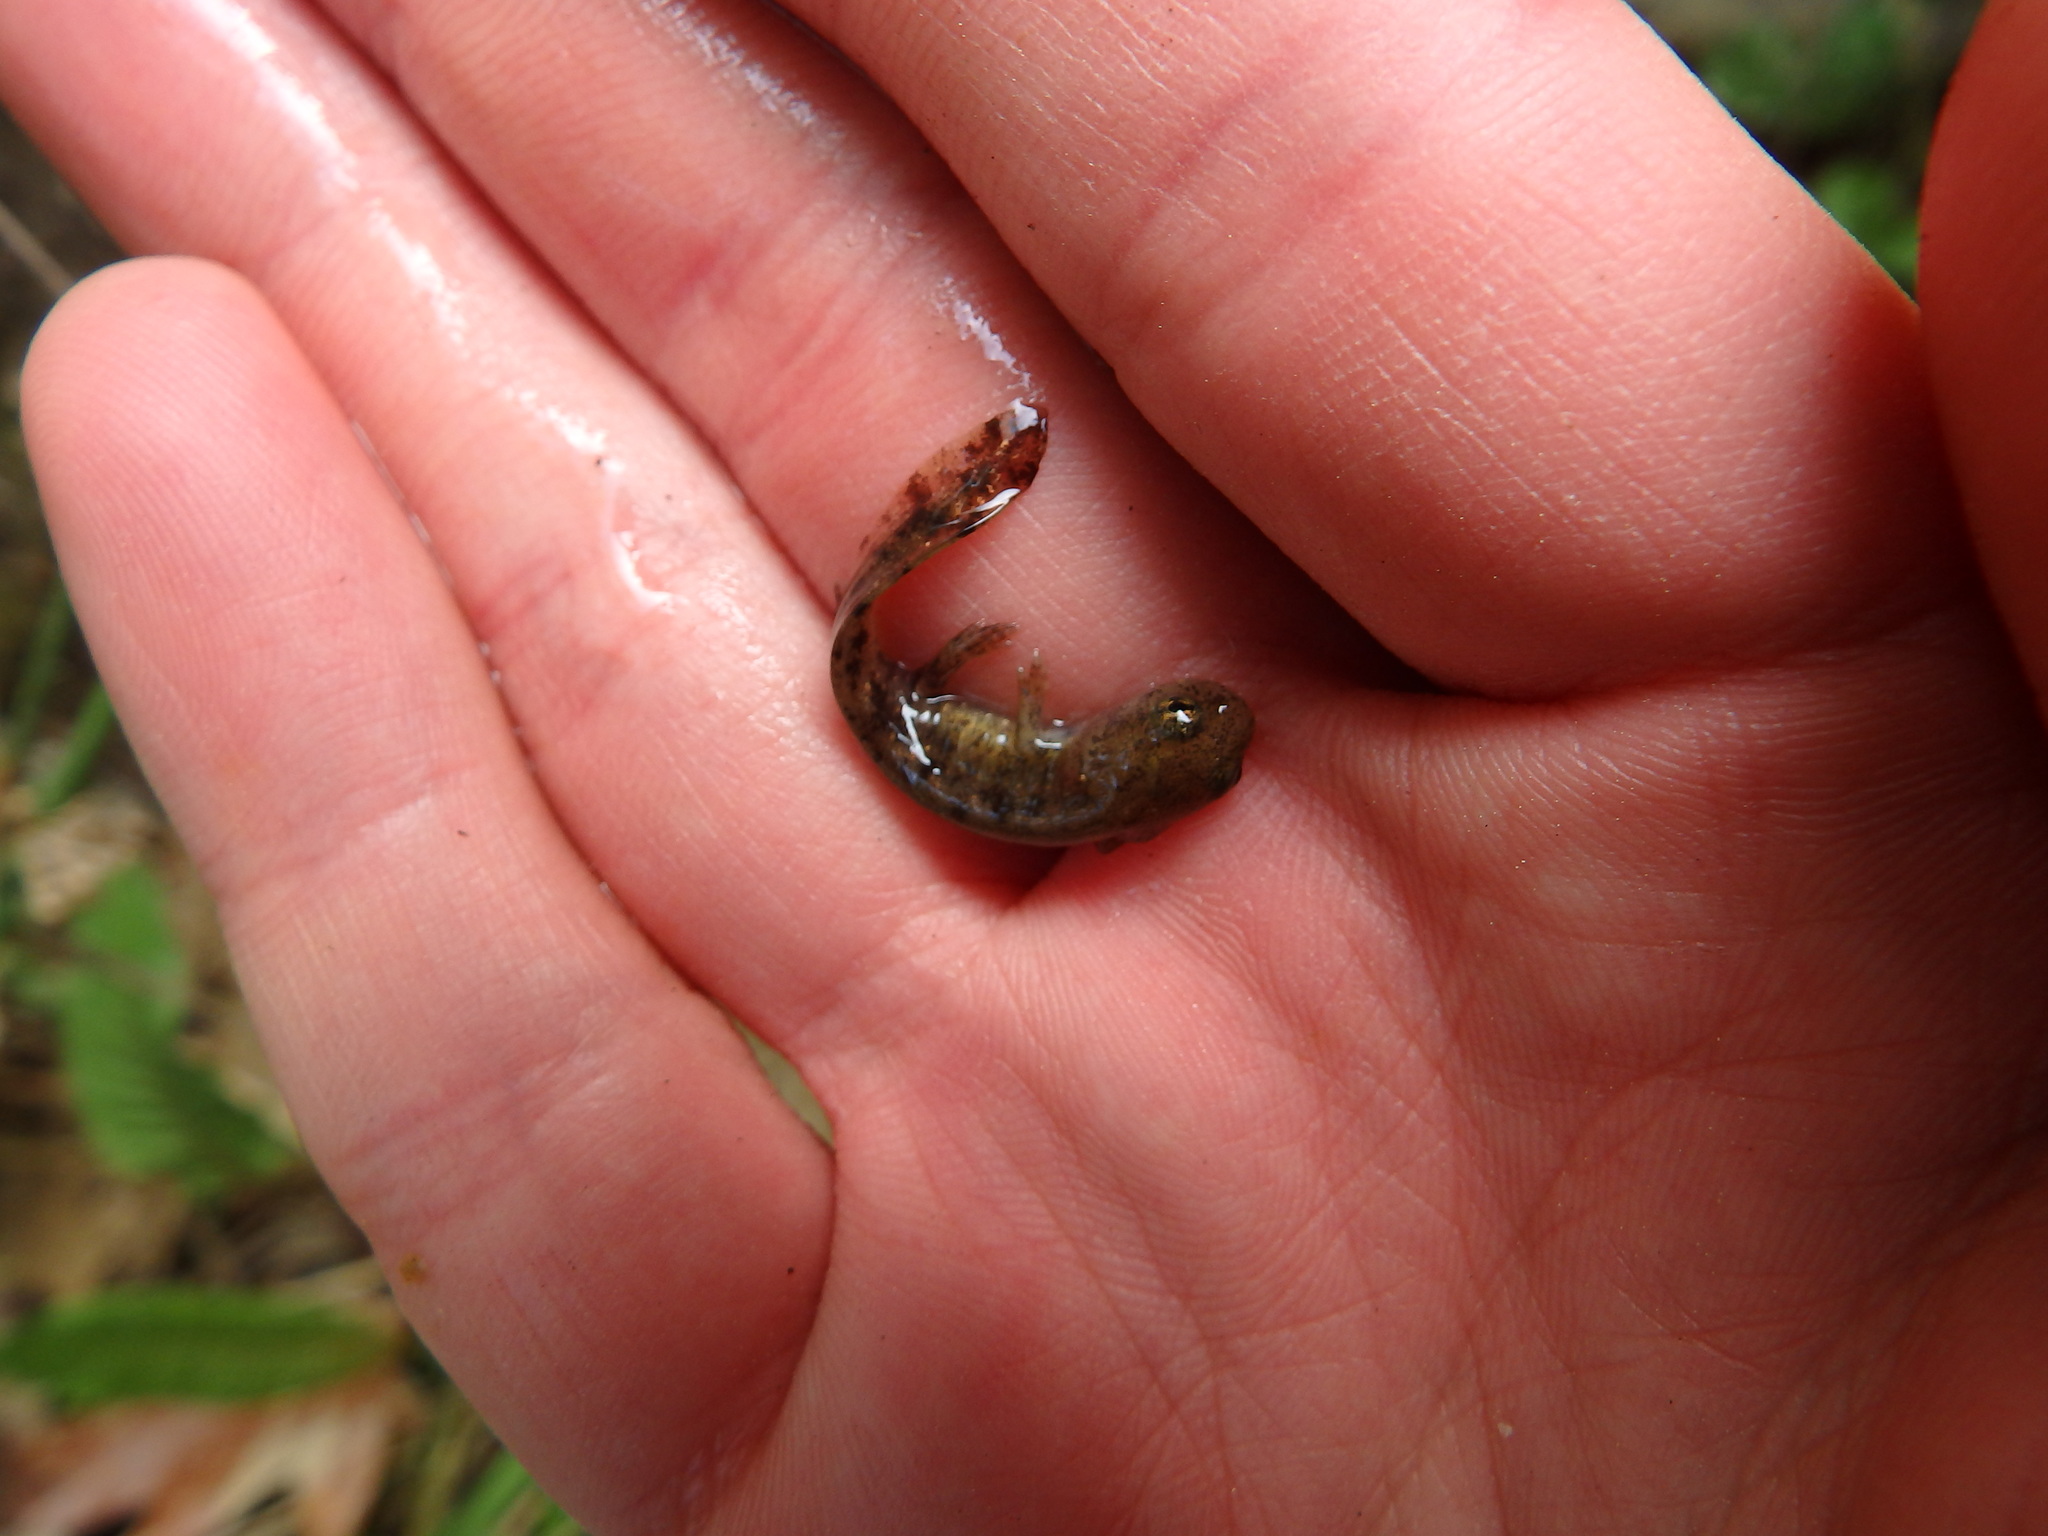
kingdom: Animalia
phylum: Chordata
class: Amphibia
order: Caudata
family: Salamandridae
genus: Salamandra
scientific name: Salamandra salamandra
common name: Fire salamander
